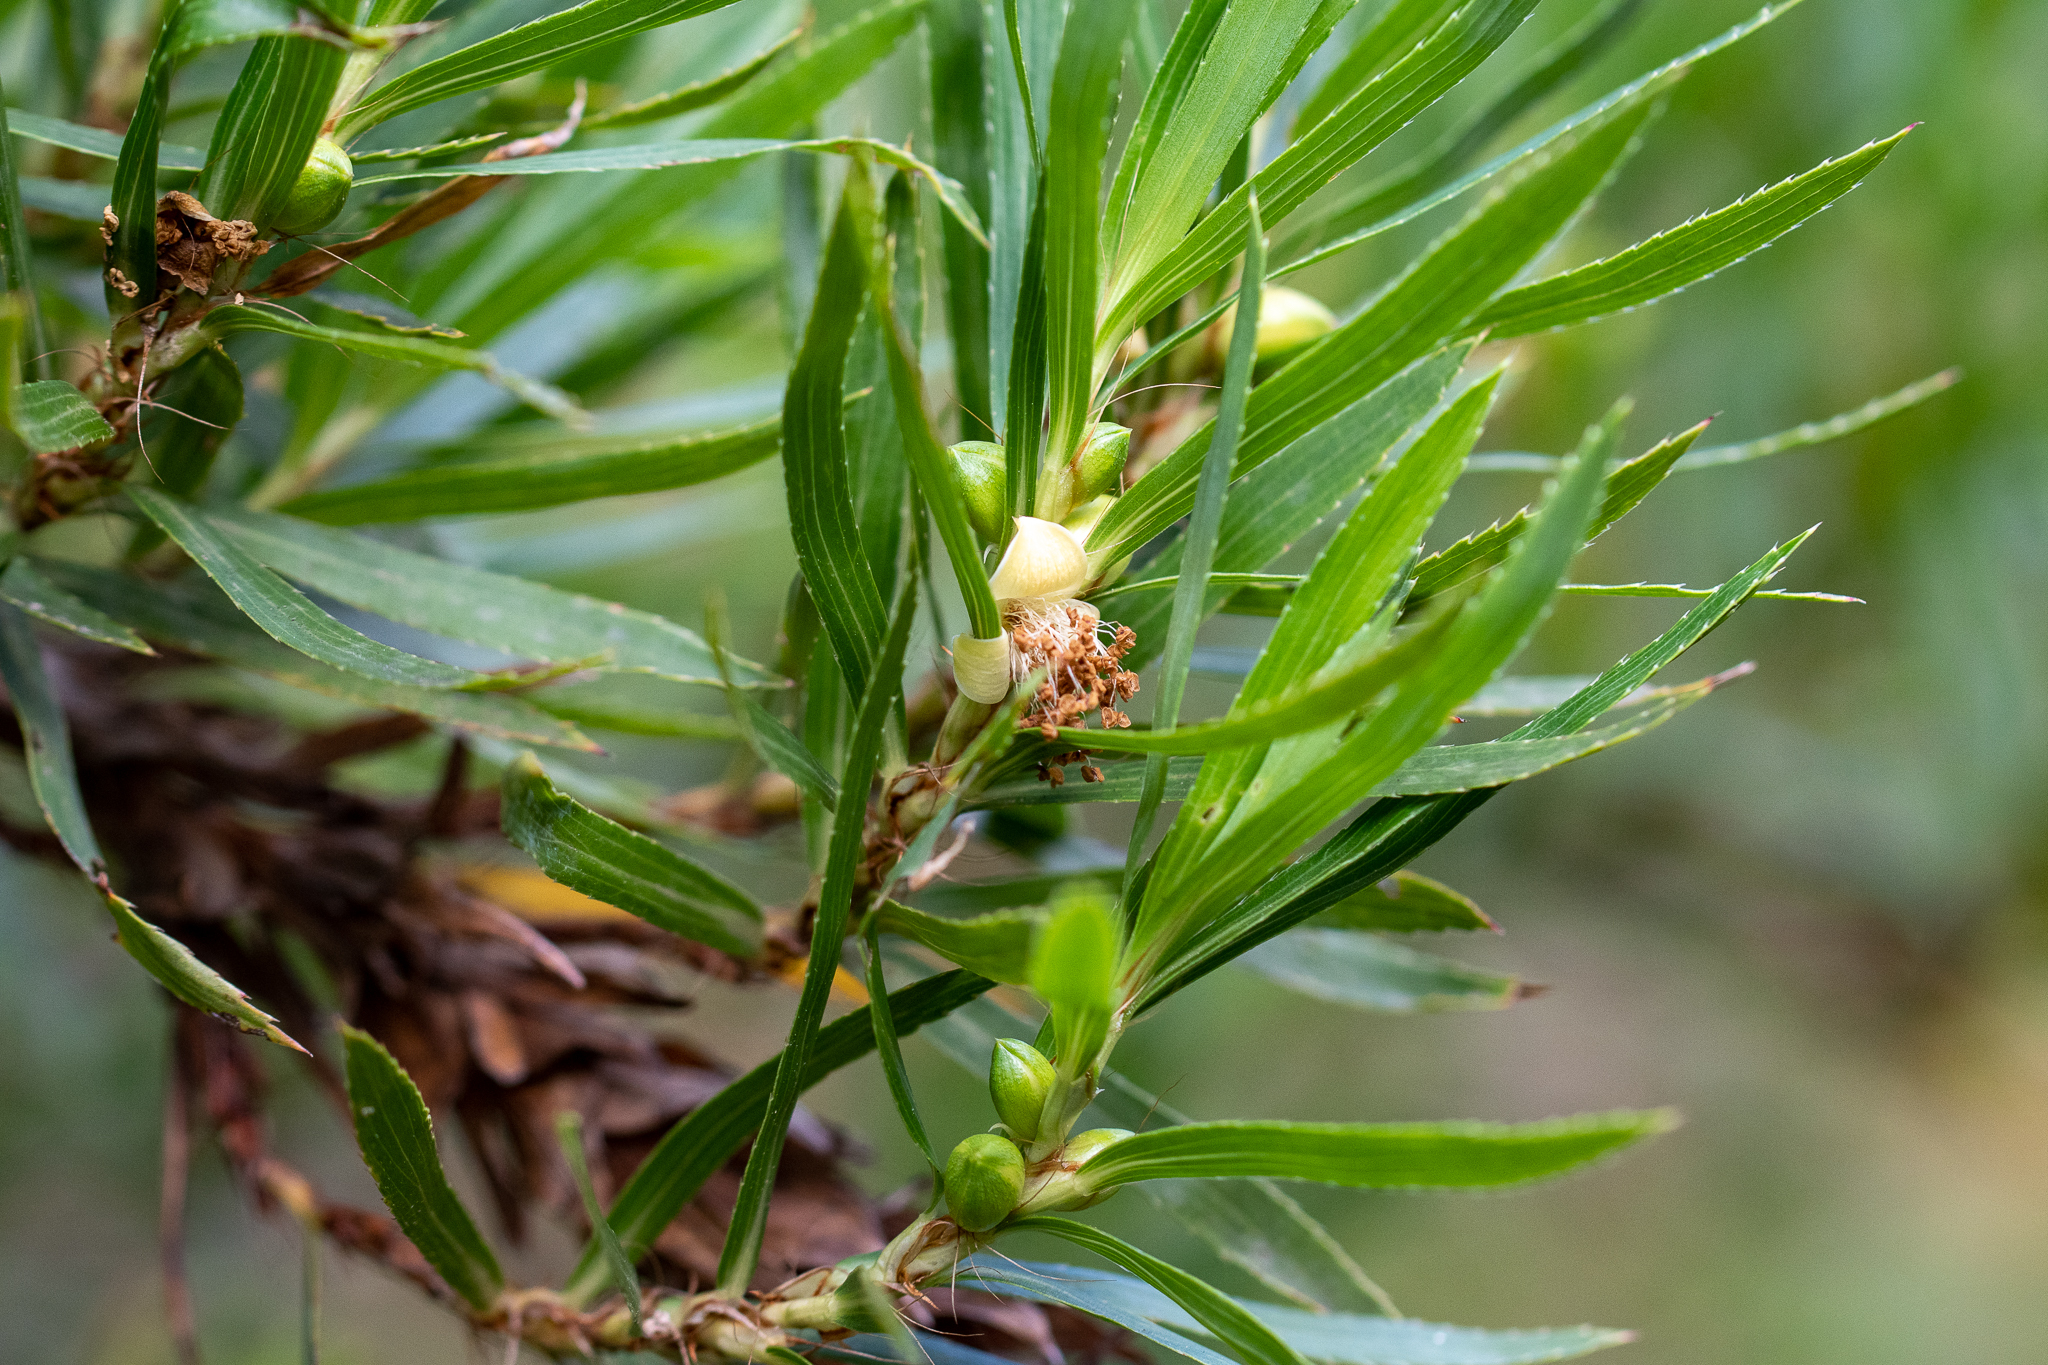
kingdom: Plantae
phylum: Tracheophyta
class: Magnoliopsida
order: Rosales
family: Rosaceae
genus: Cliffortia
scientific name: Cliffortia heterophylla
